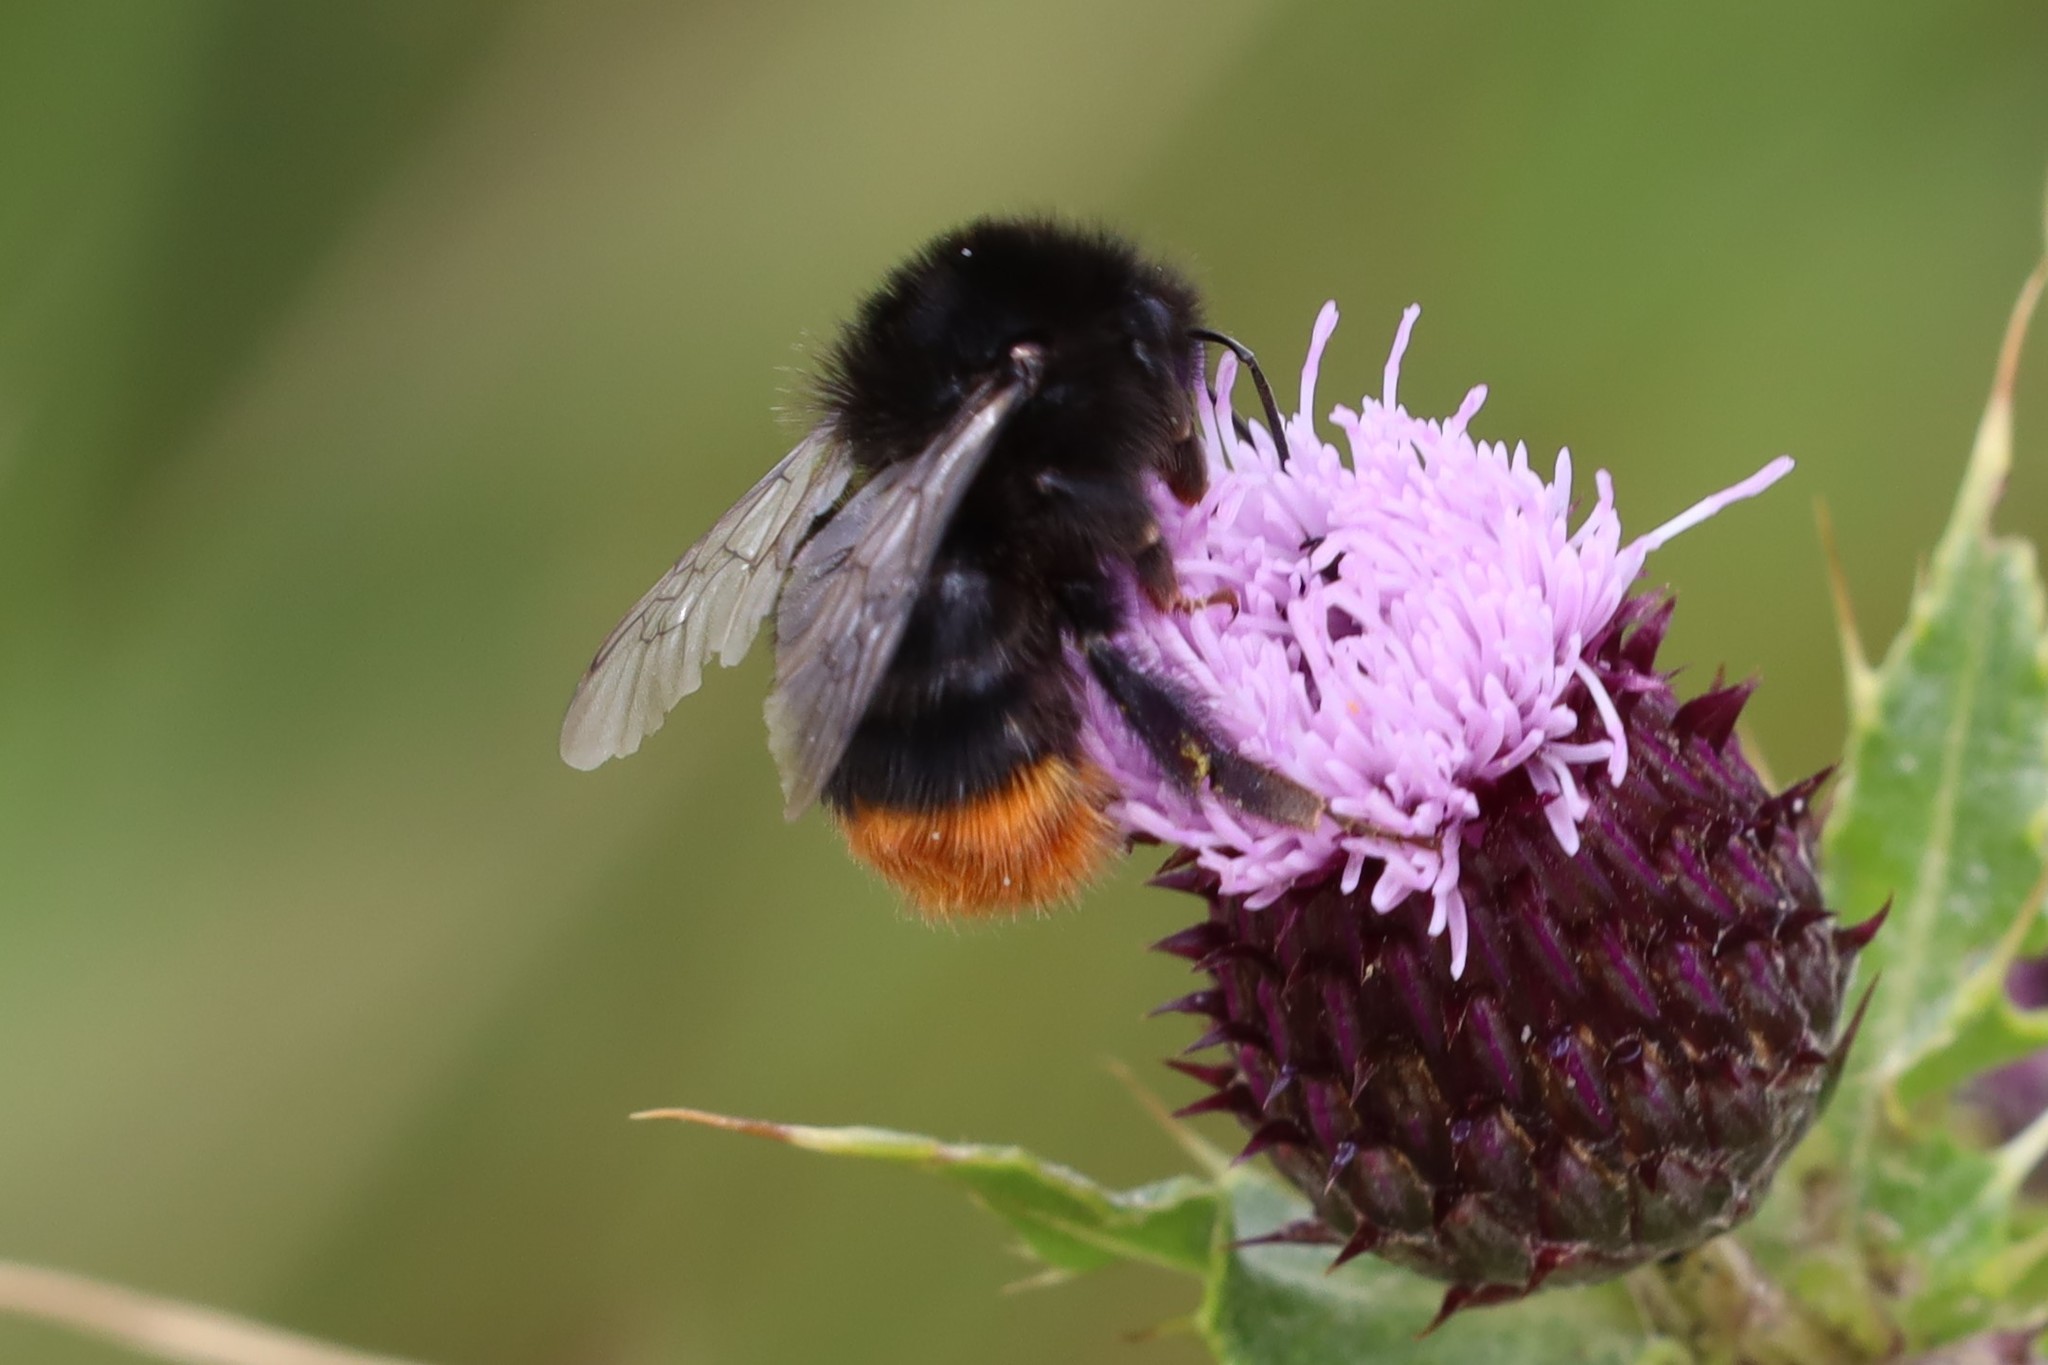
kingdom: Animalia
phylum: Arthropoda
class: Insecta
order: Hymenoptera
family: Apidae
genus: Bombus
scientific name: Bombus lapidarius
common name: Large red-tailed humble-bee
